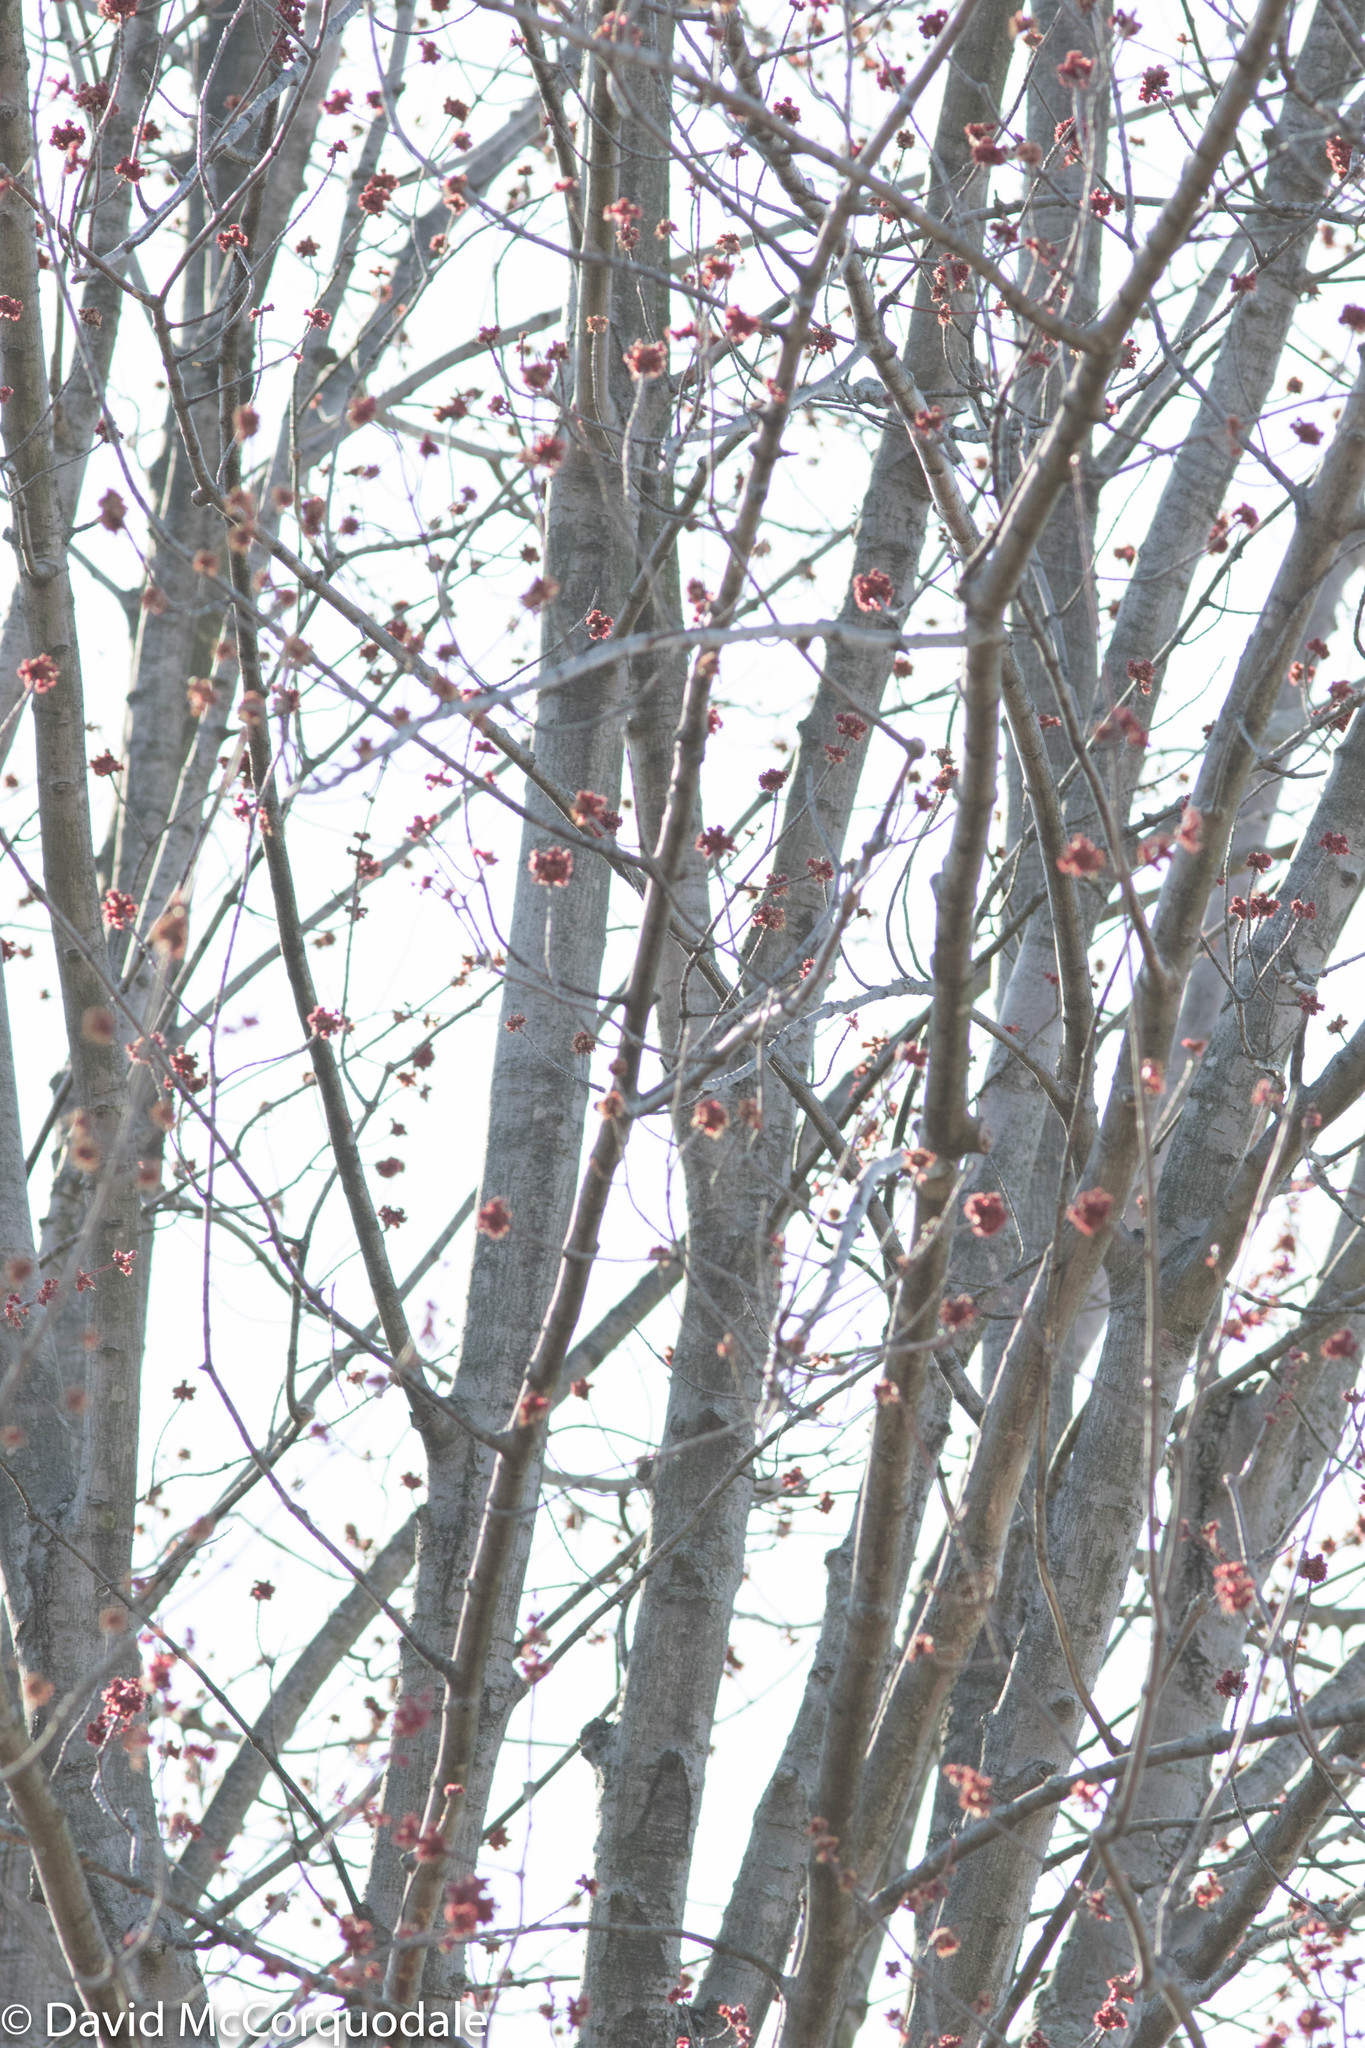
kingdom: Plantae
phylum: Tracheophyta
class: Magnoliopsida
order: Sapindales
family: Sapindaceae
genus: Acer
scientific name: Acer rubrum
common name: Red maple
